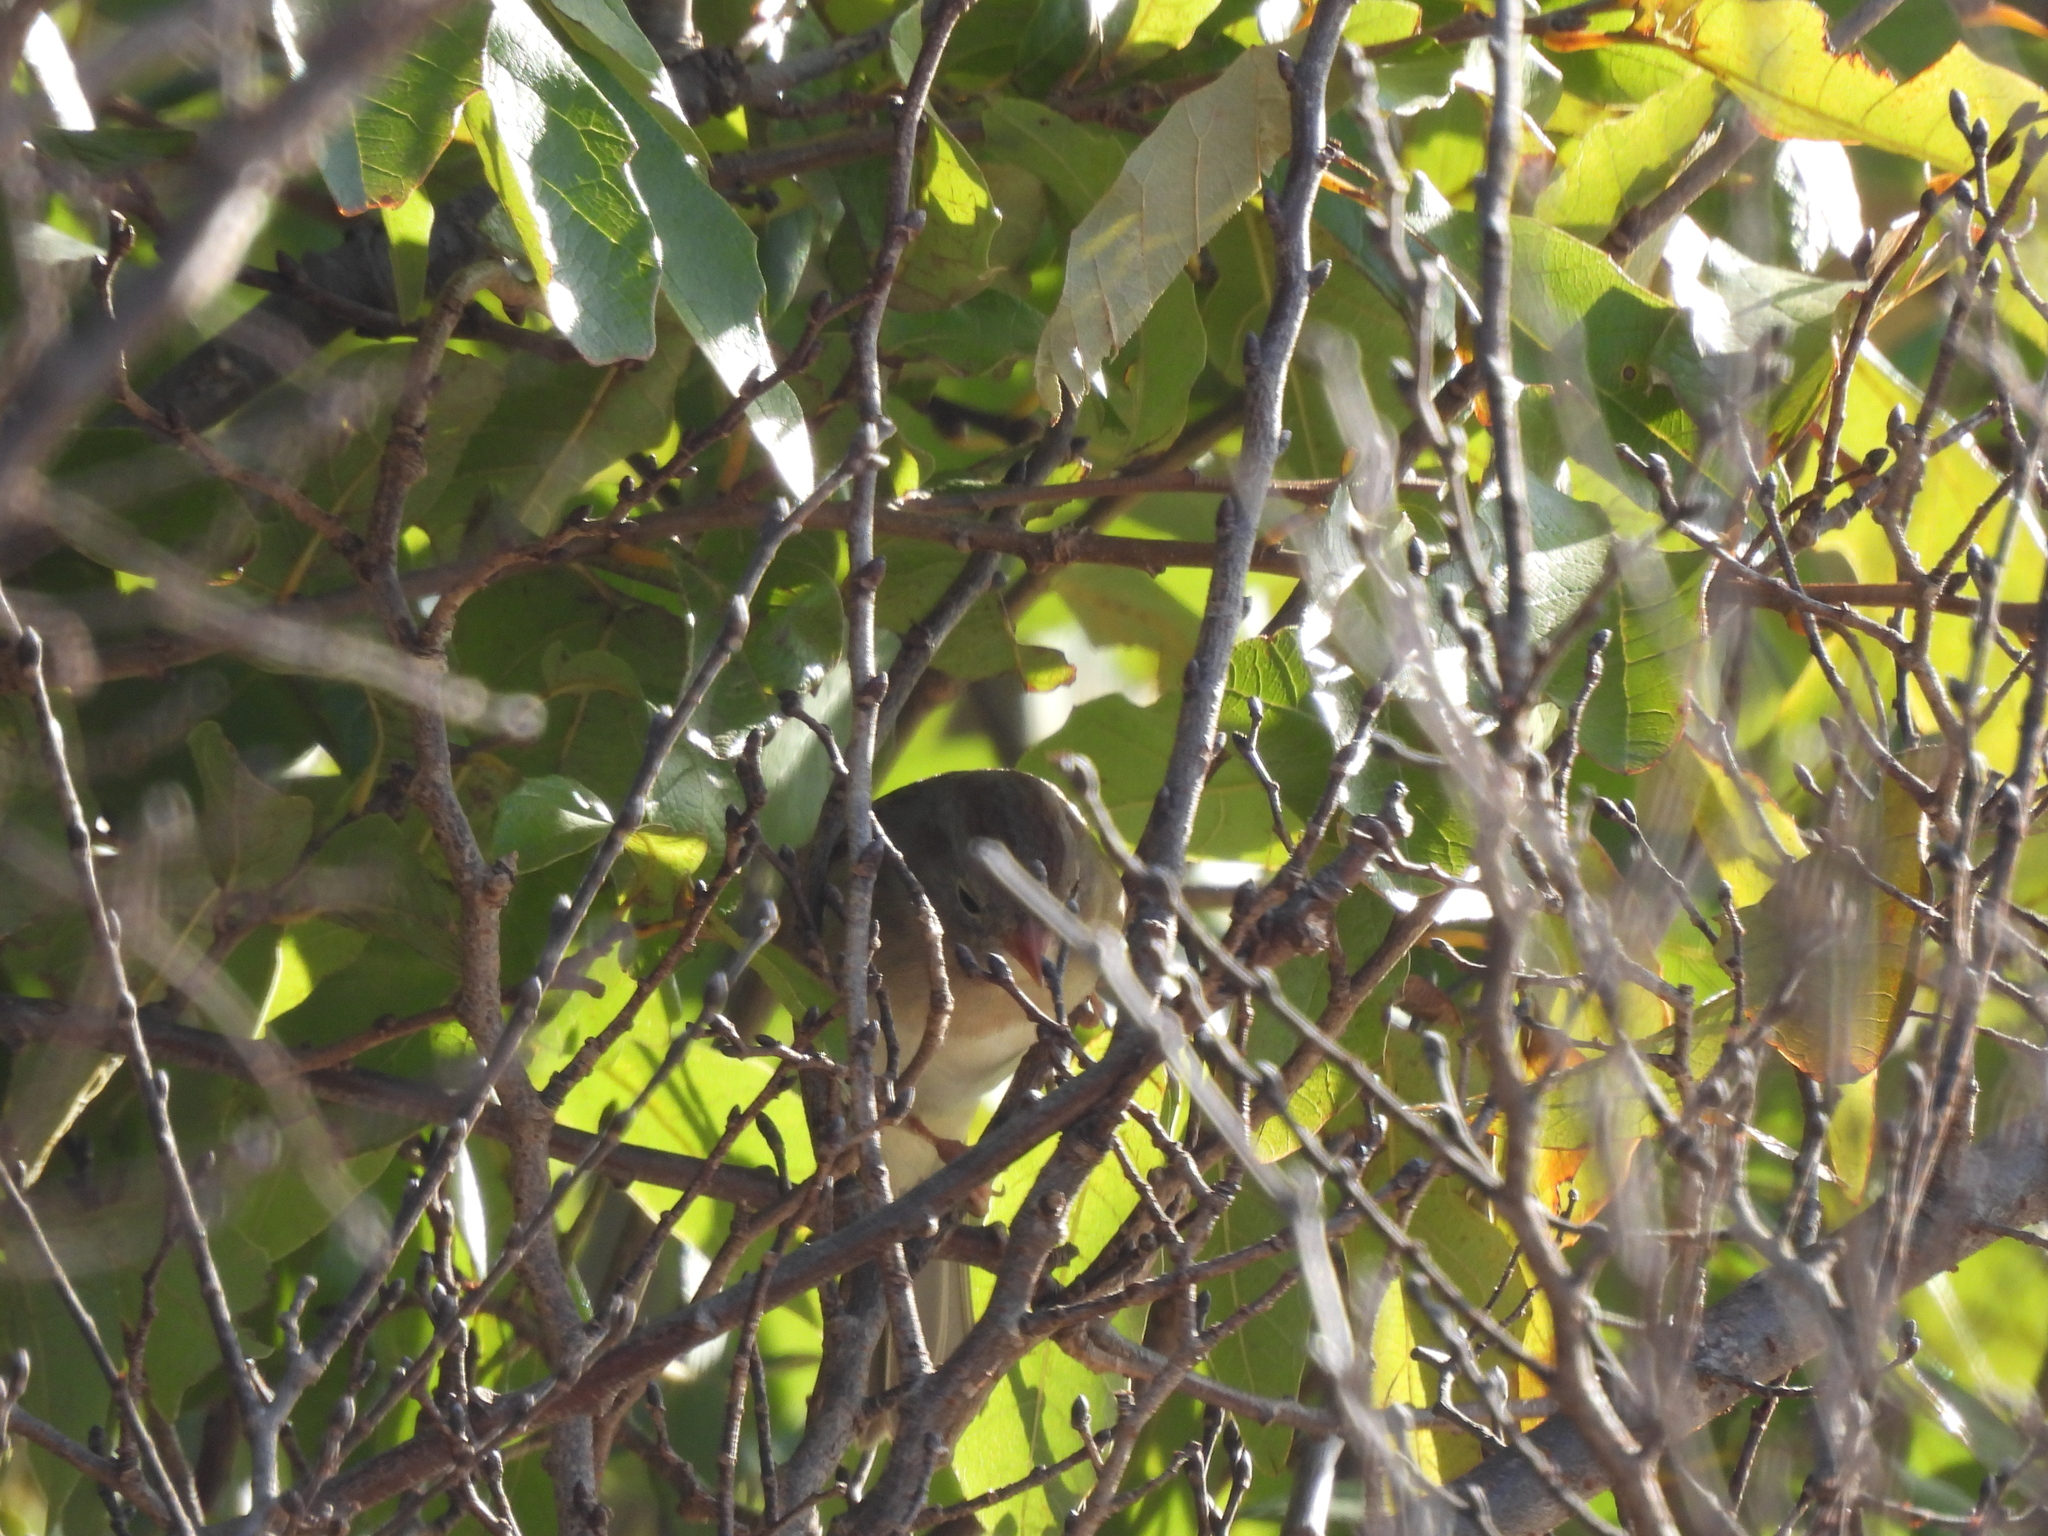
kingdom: Animalia
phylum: Chordata
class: Aves
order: Passeriformes
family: Passerellidae
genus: Spizella
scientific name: Spizella pusilla
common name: Field sparrow
